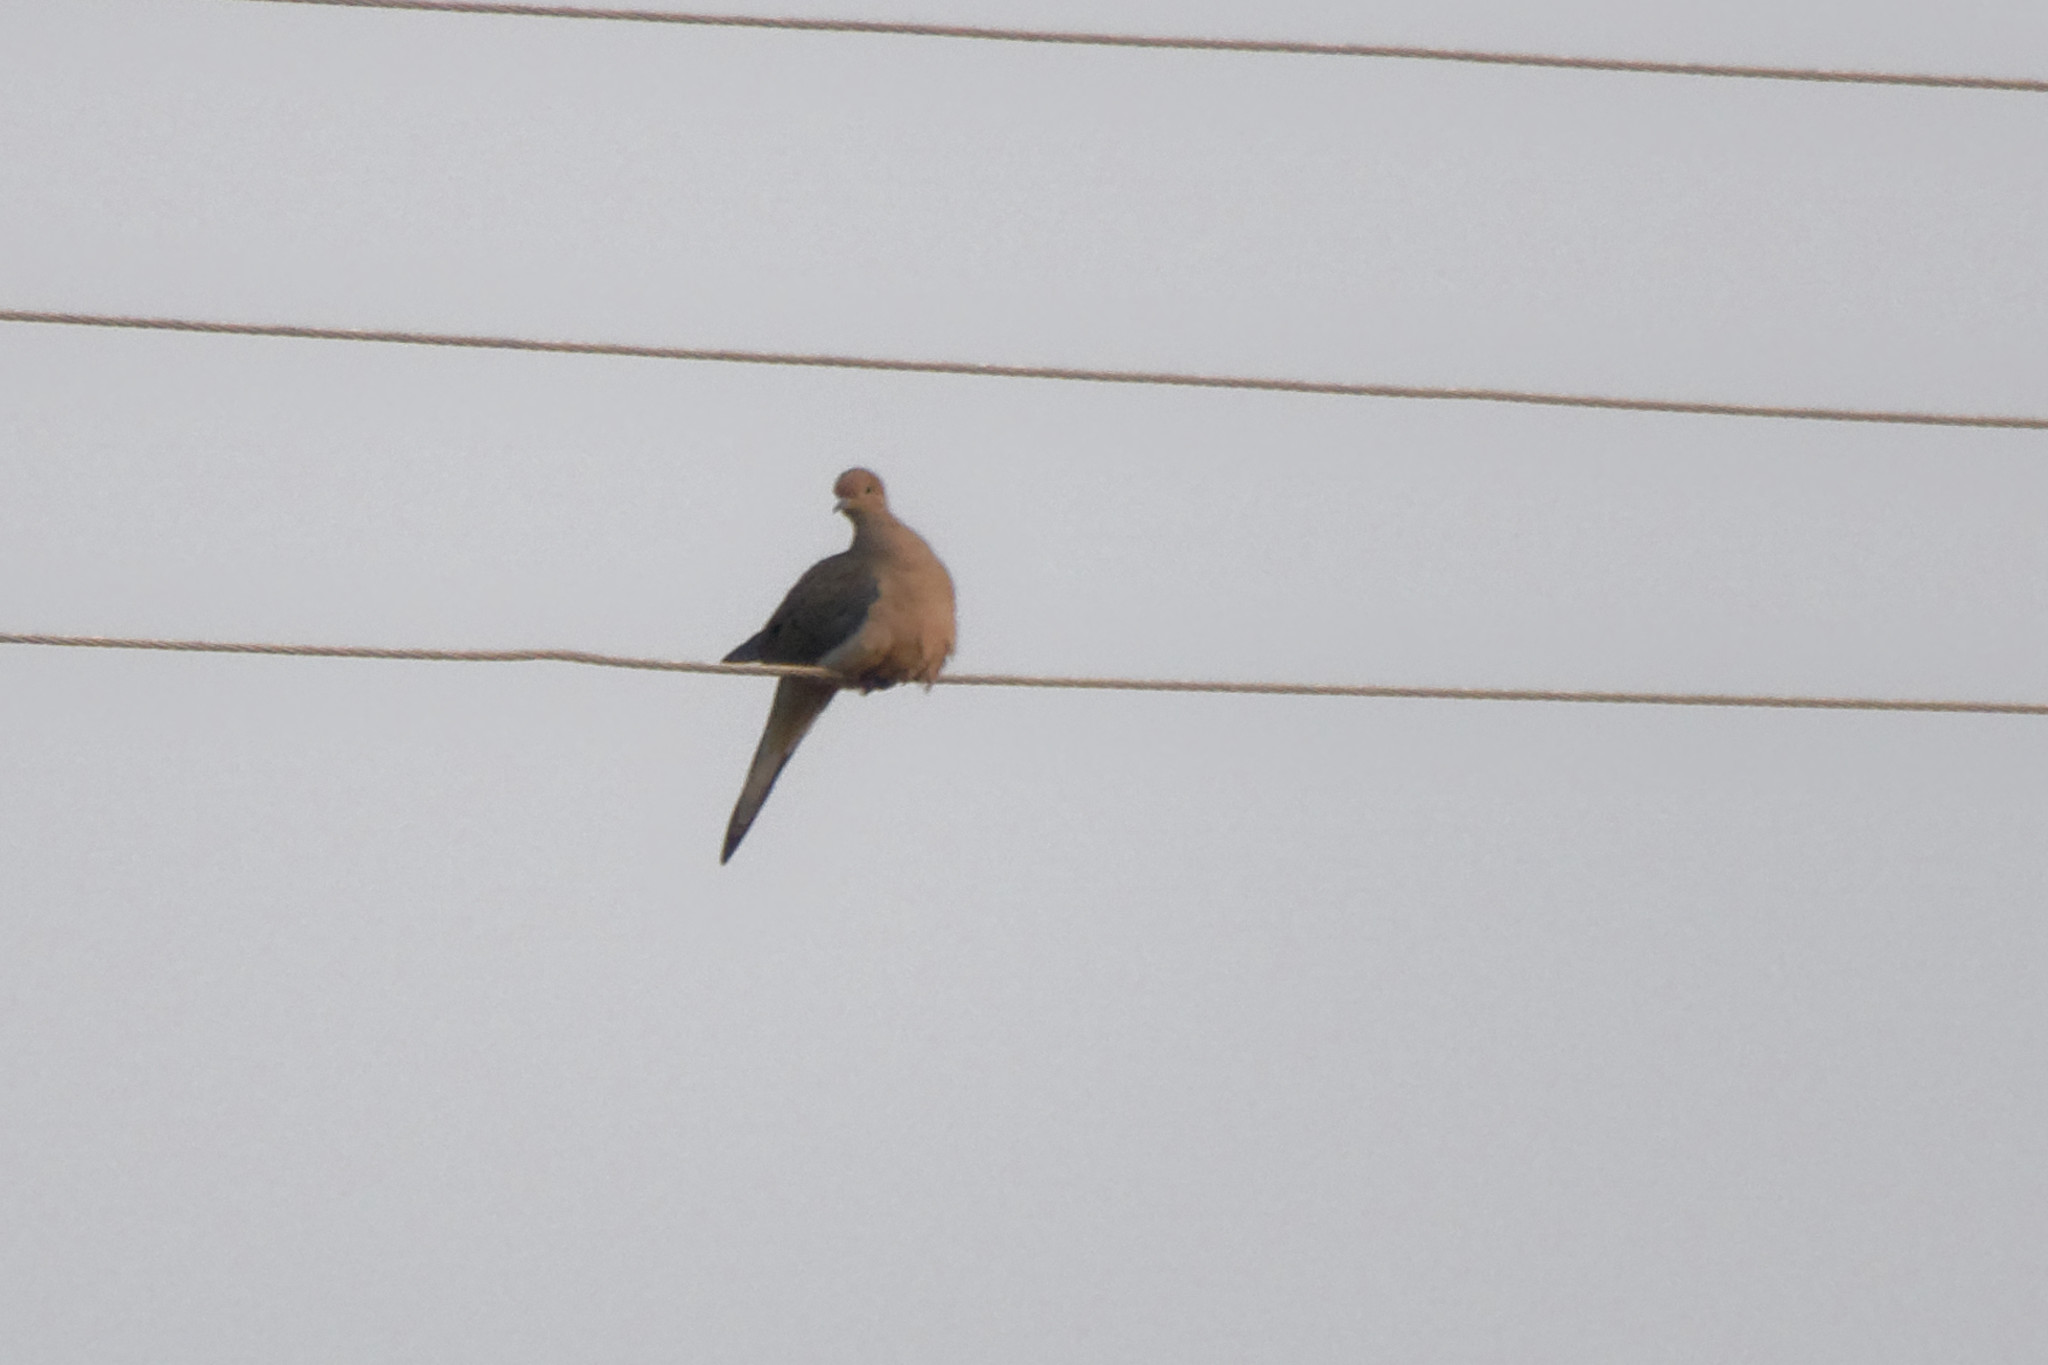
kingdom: Animalia
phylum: Chordata
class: Aves
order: Columbiformes
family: Columbidae
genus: Zenaida
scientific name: Zenaida macroura
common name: Mourning dove
